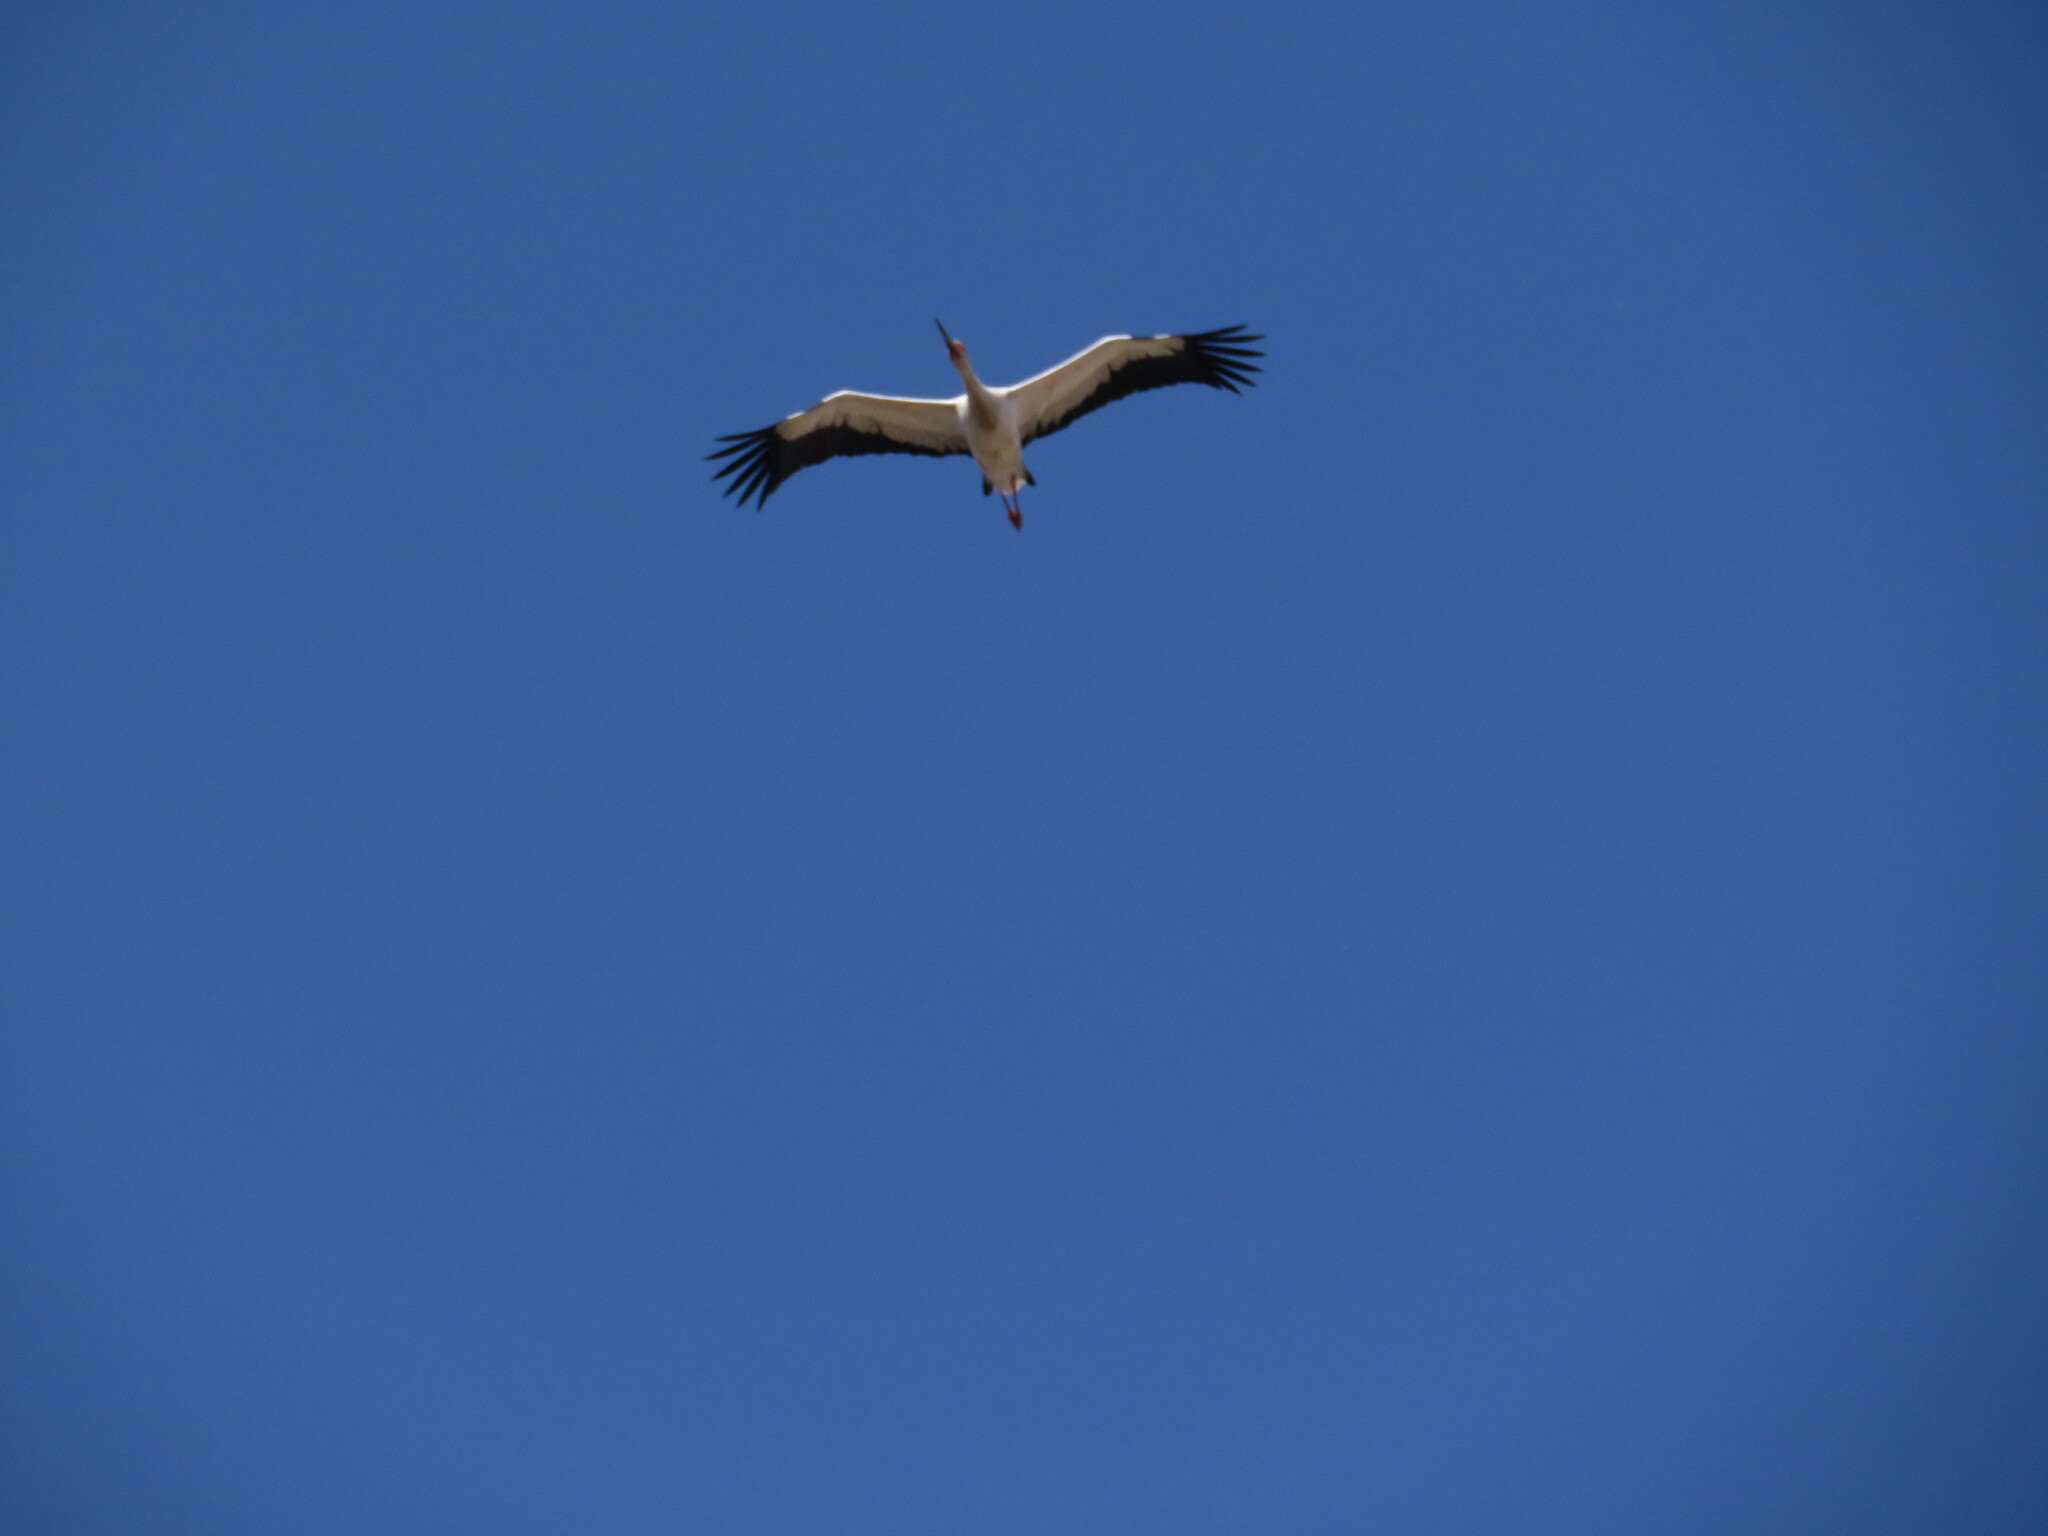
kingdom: Animalia
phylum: Chordata
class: Aves
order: Ciconiiformes
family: Ciconiidae
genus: Ciconia
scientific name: Ciconia maguari
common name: Maguari stork
